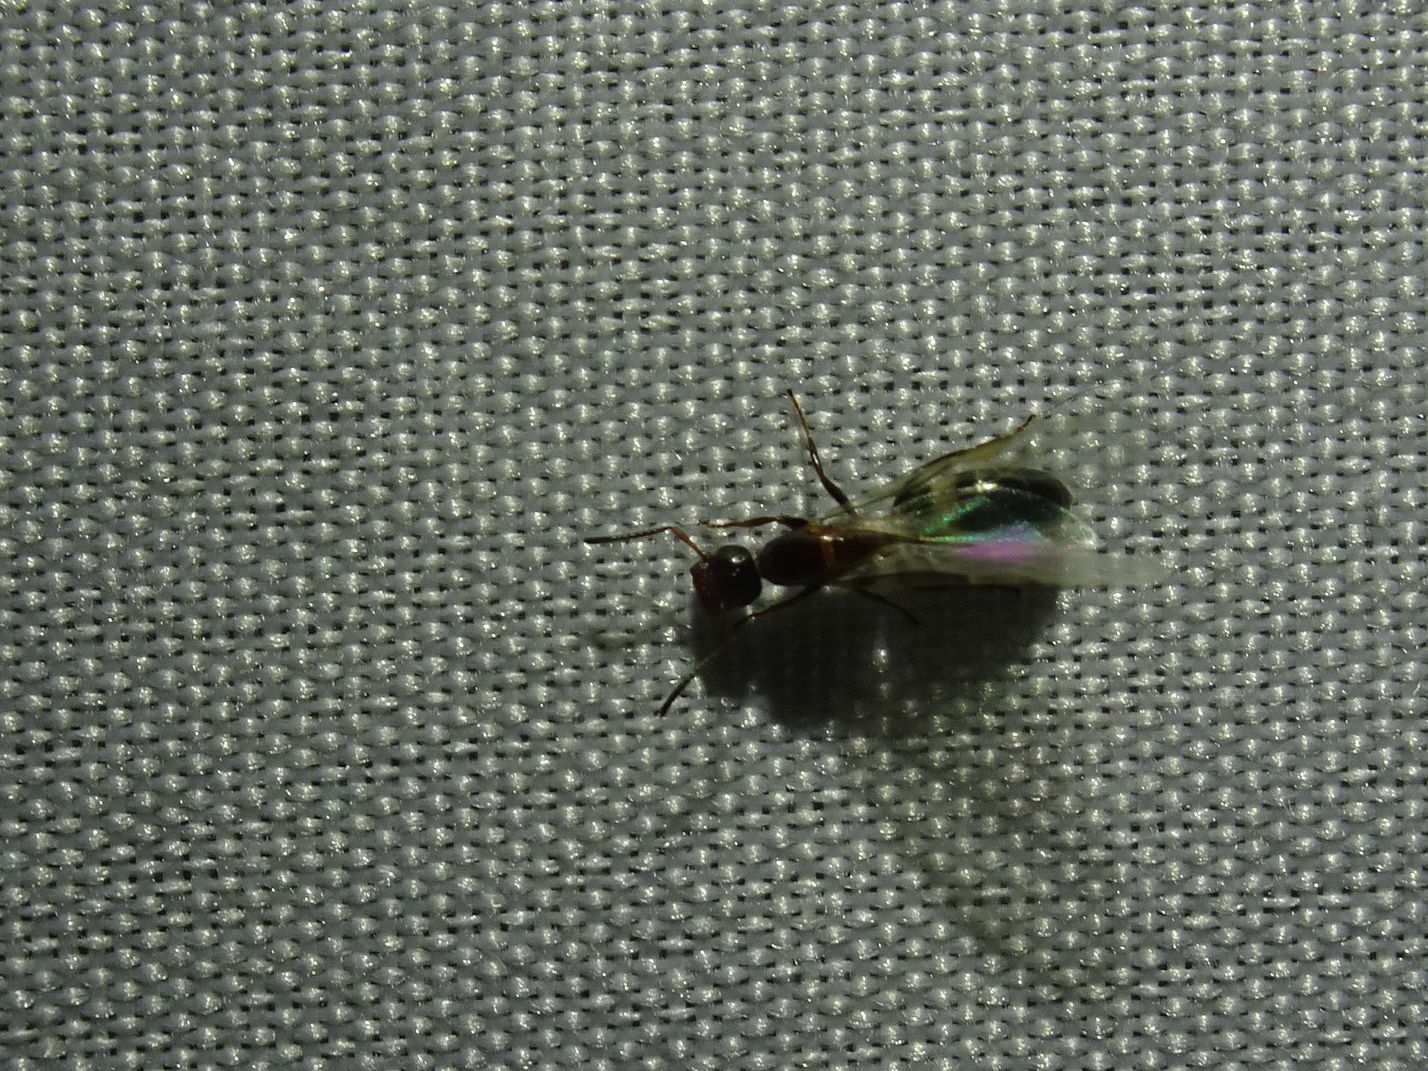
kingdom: Animalia
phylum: Arthropoda
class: Insecta
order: Hymenoptera
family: Formicidae
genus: Camponotus
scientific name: Camponotus truncatus
